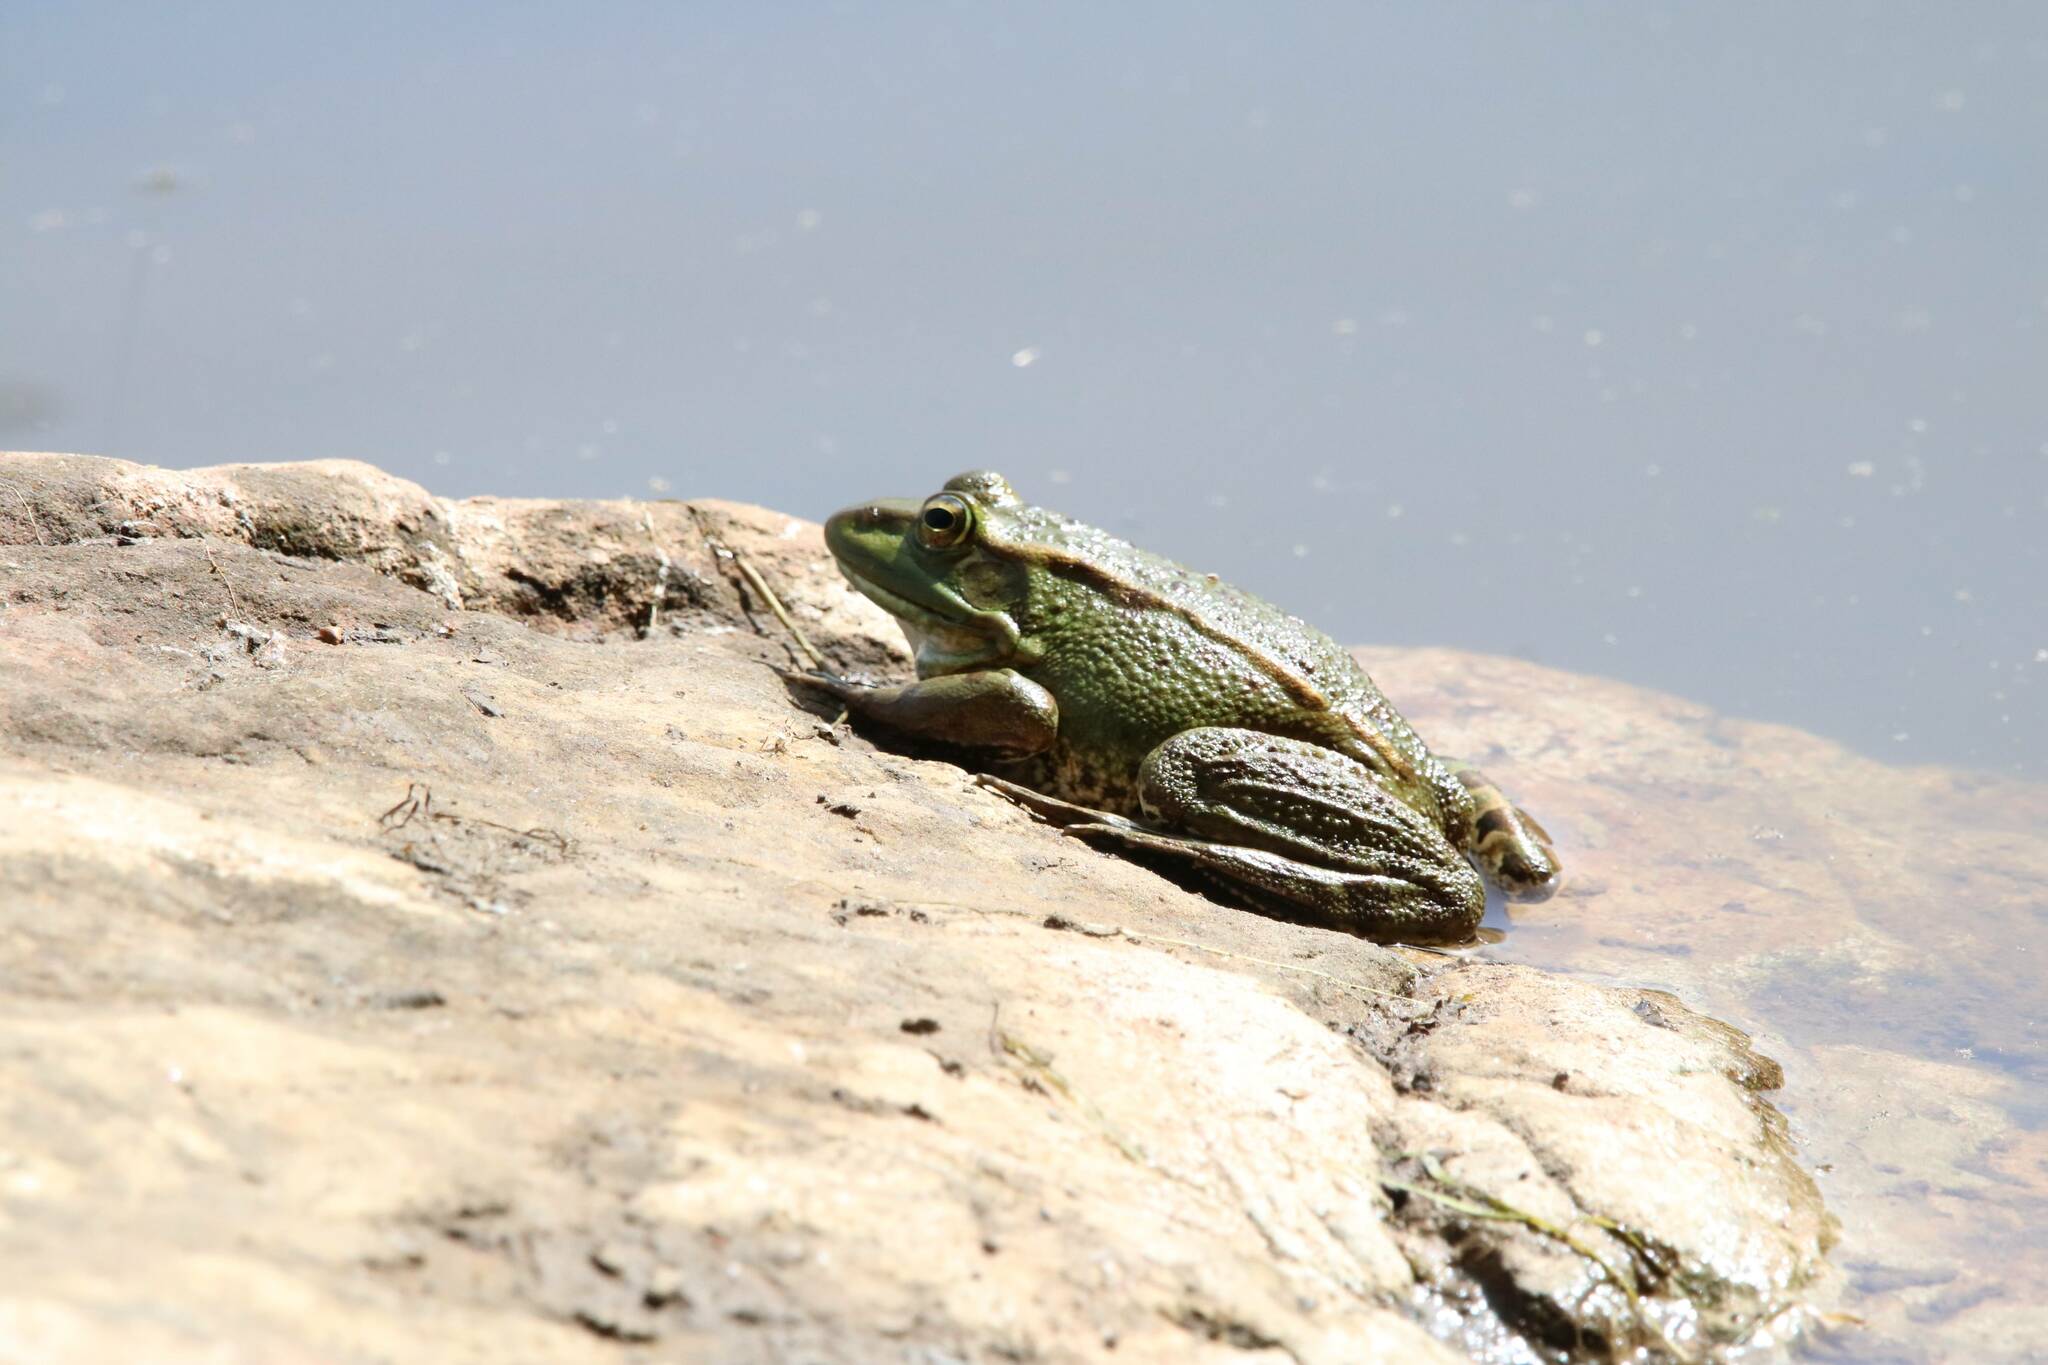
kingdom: Animalia
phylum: Chordata
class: Amphibia
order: Anura
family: Ranidae
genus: Pelophylax
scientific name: Pelophylax saharicus
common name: Sahara frog
